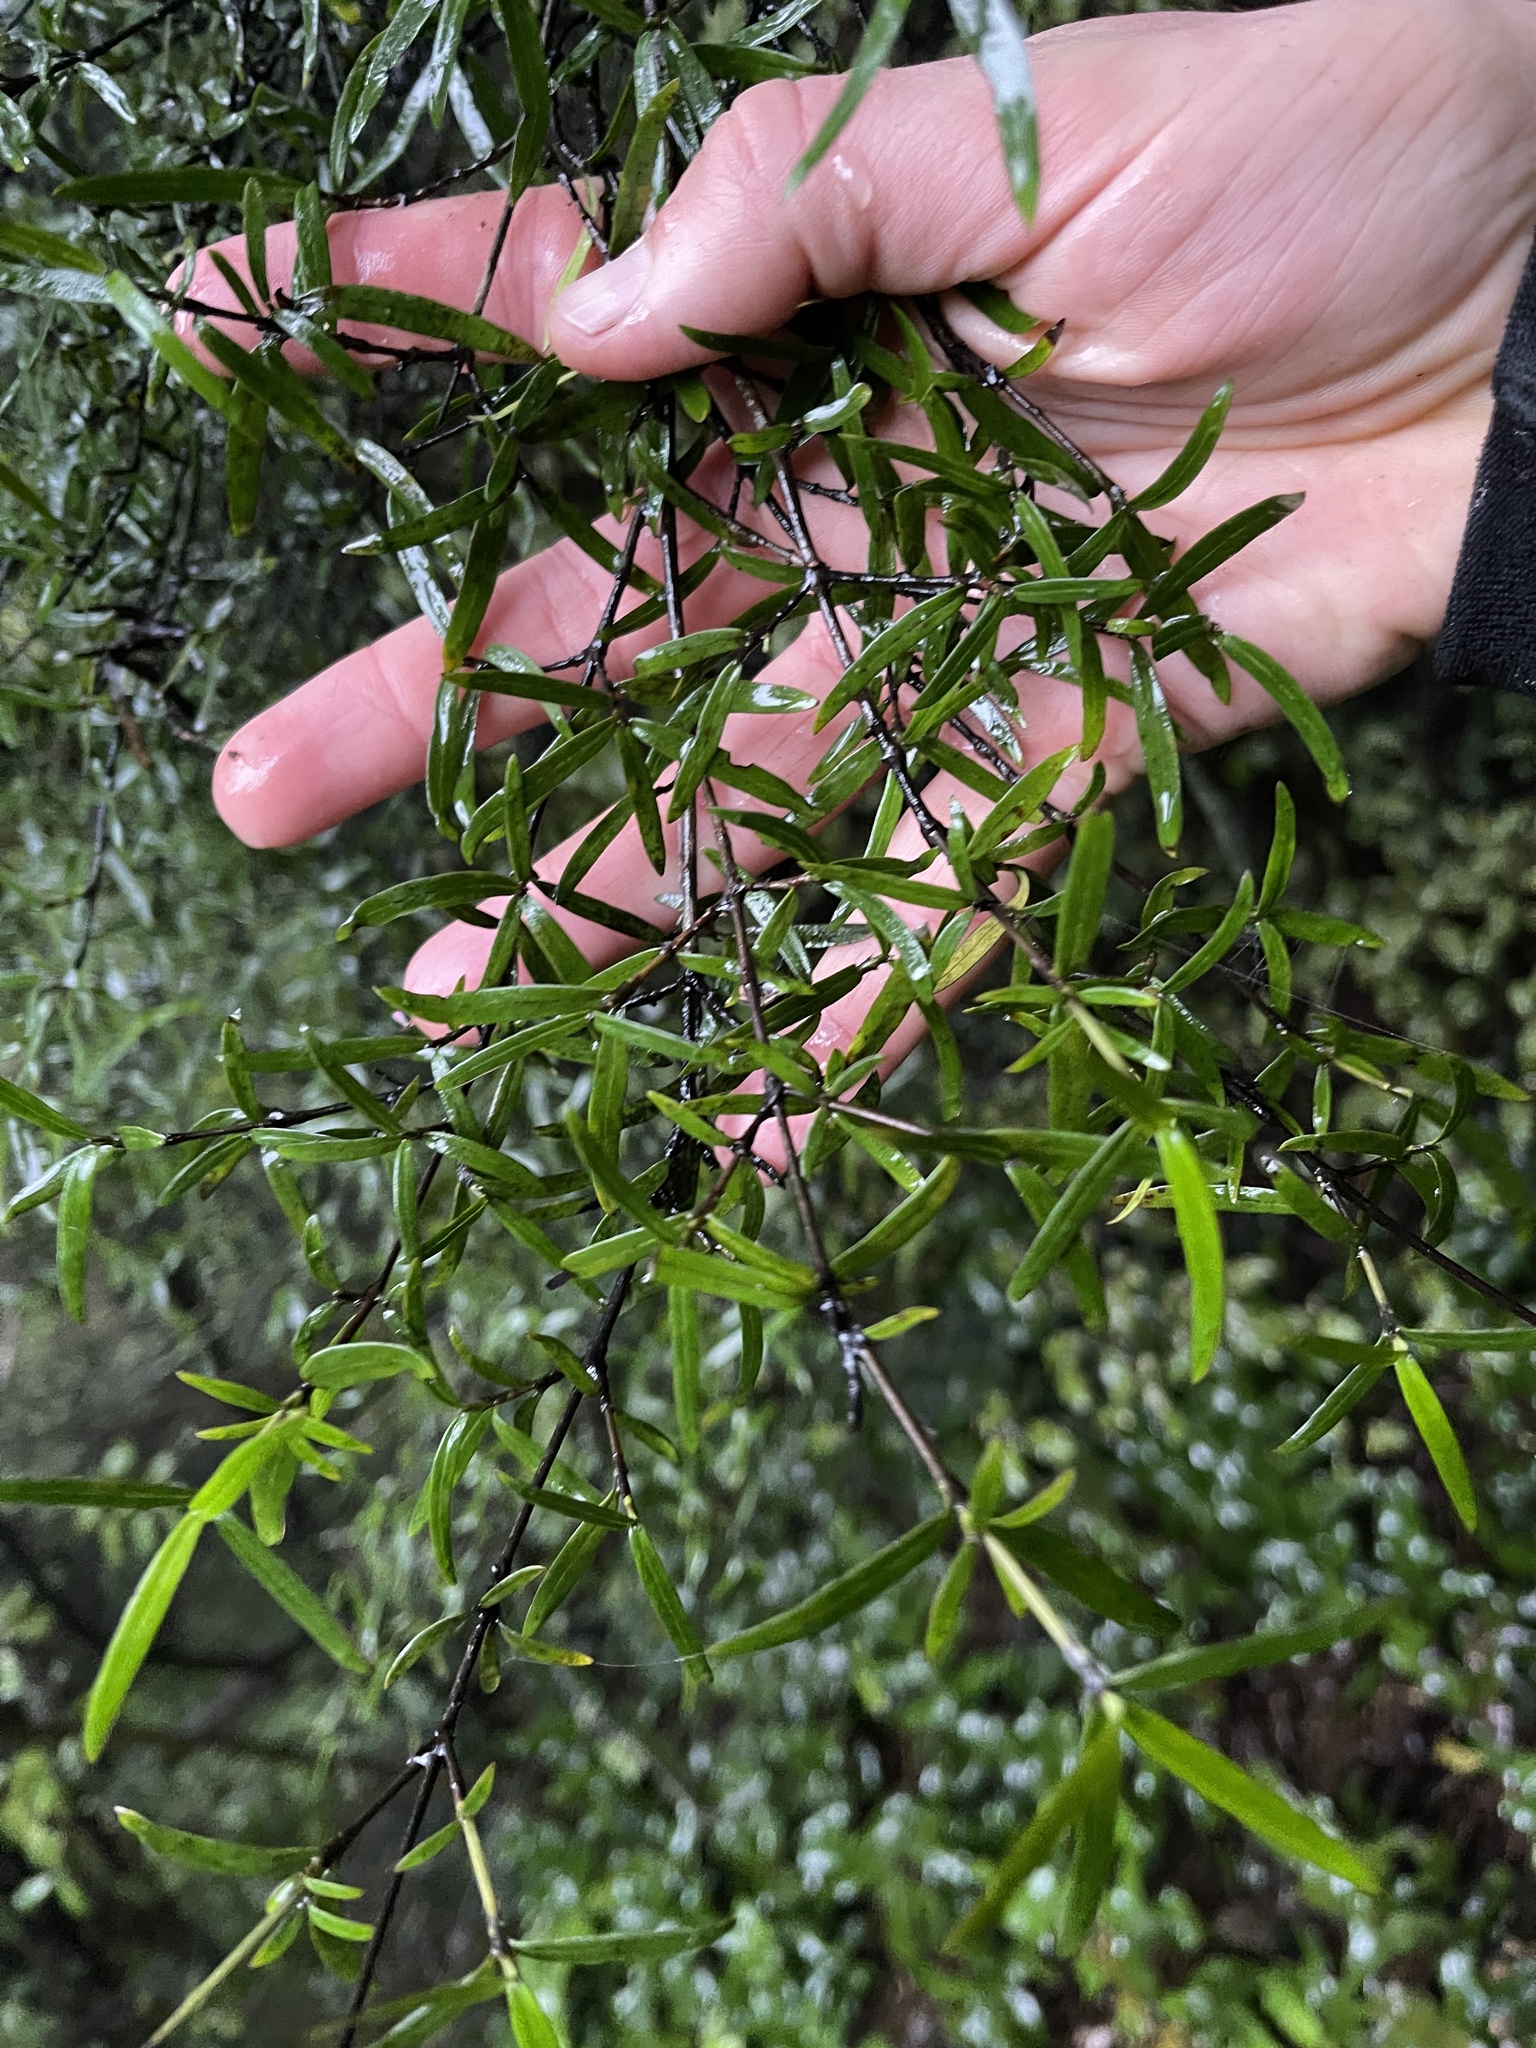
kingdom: Plantae
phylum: Tracheophyta
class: Magnoliopsida
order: Gentianales
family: Rubiaceae
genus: Coprosma
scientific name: Coprosma linariifolia
